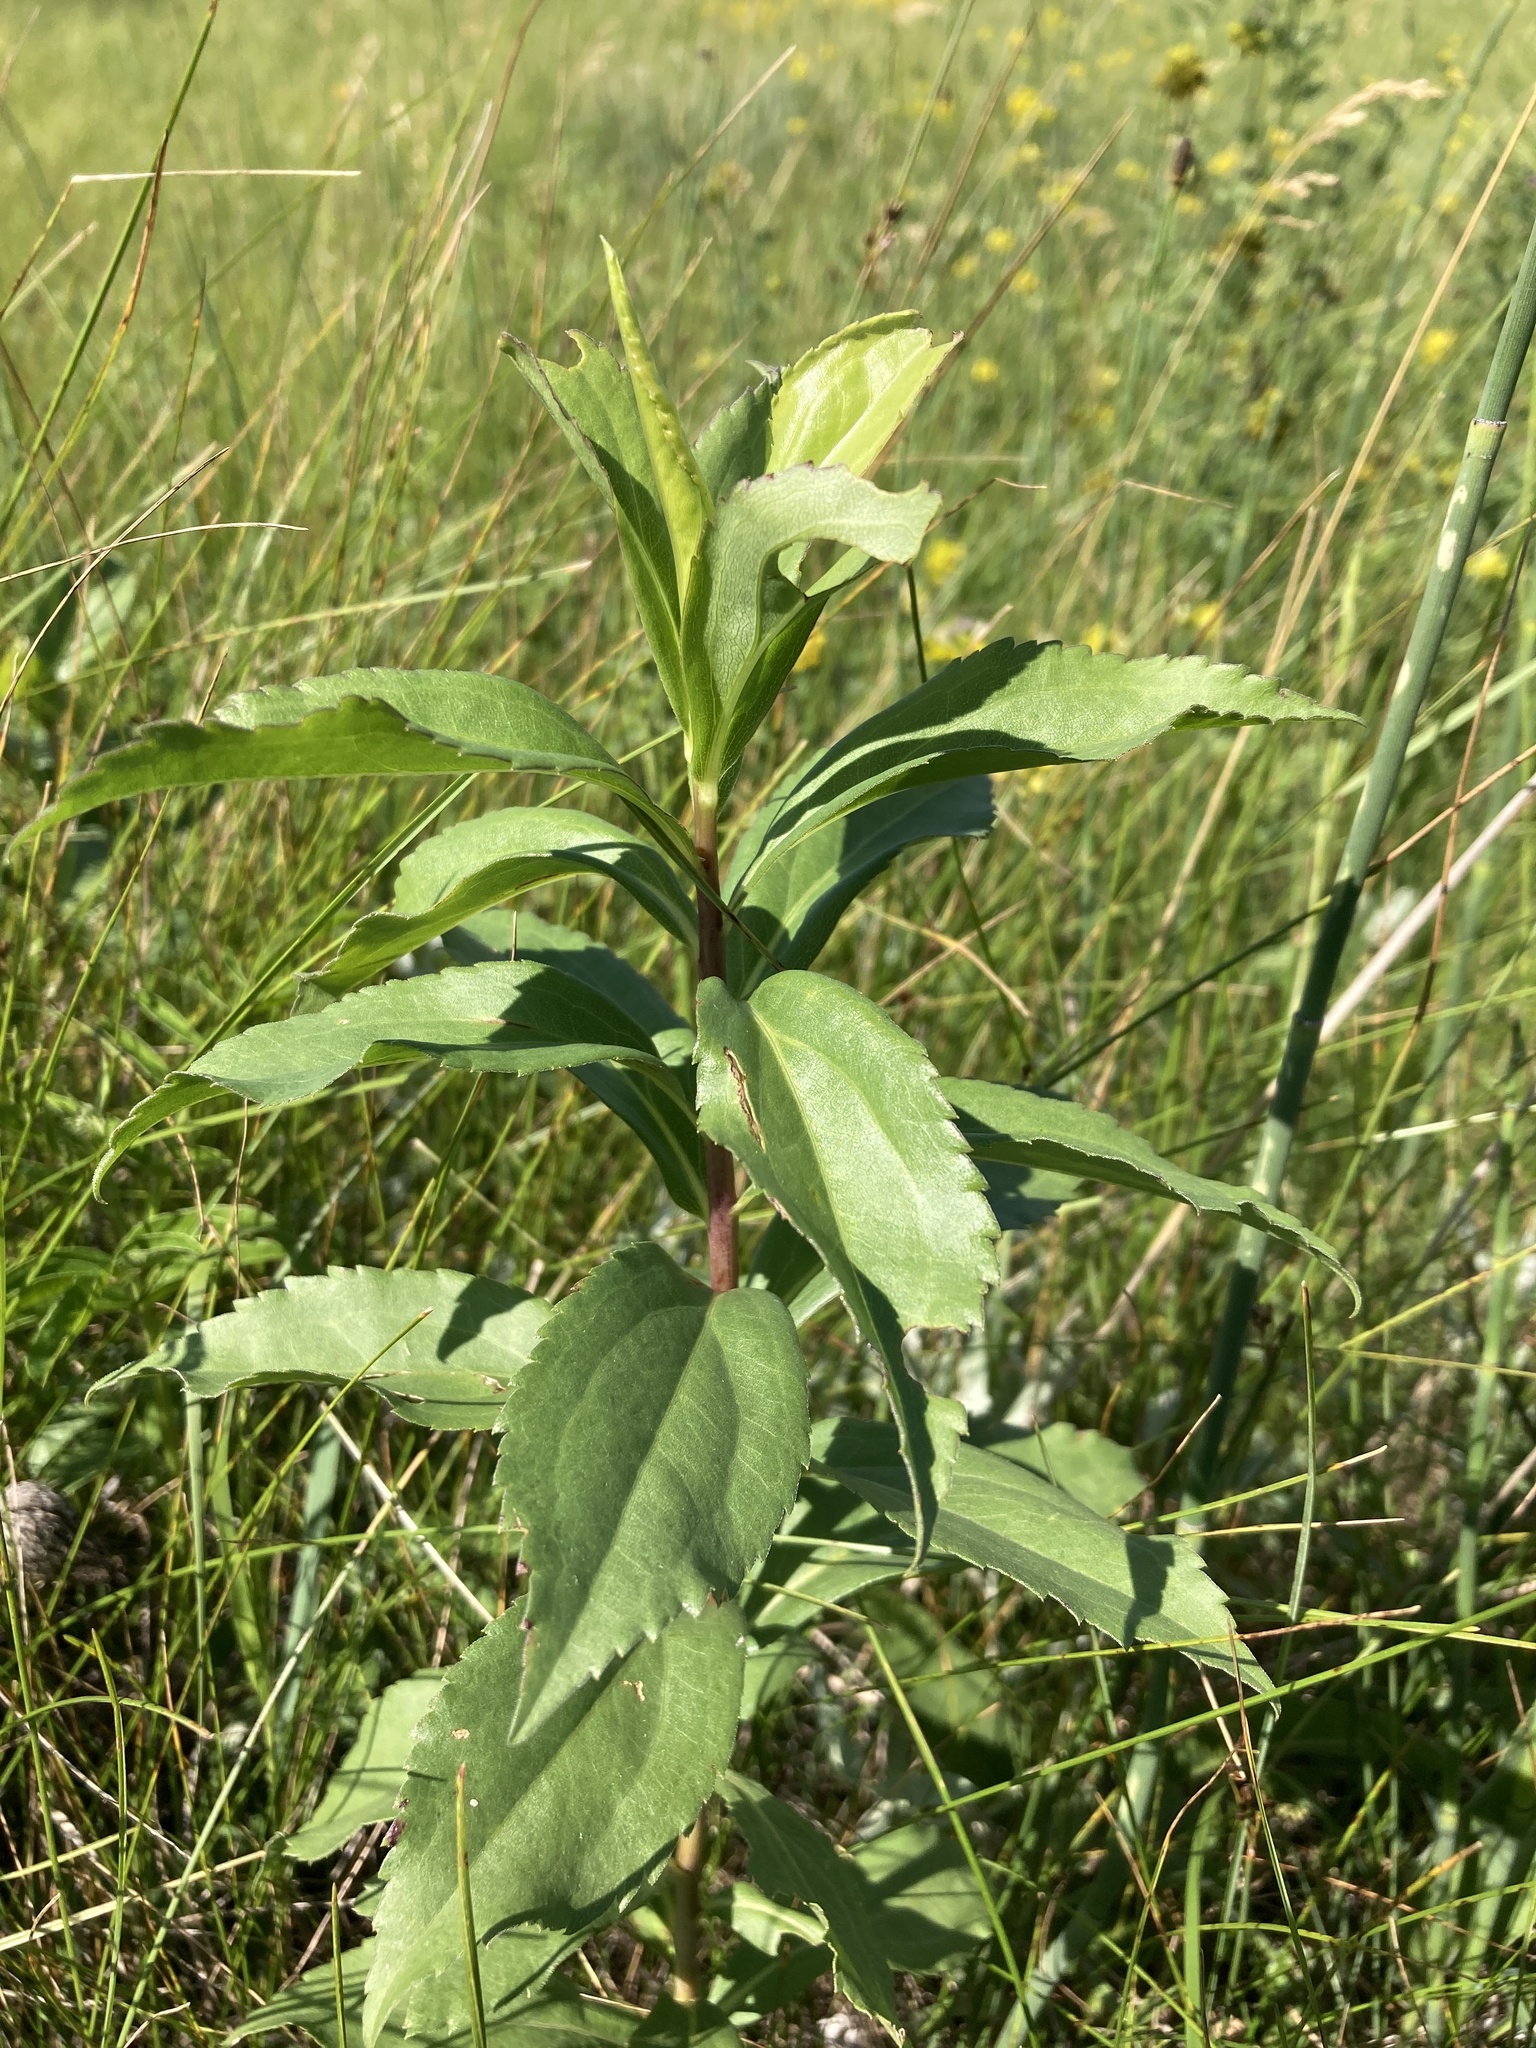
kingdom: Plantae
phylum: Tracheophyta
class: Magnoliopsida
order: Asterales
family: Asteraceae
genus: Solidago
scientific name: Solidago gigantea
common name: Giant goldenrod
